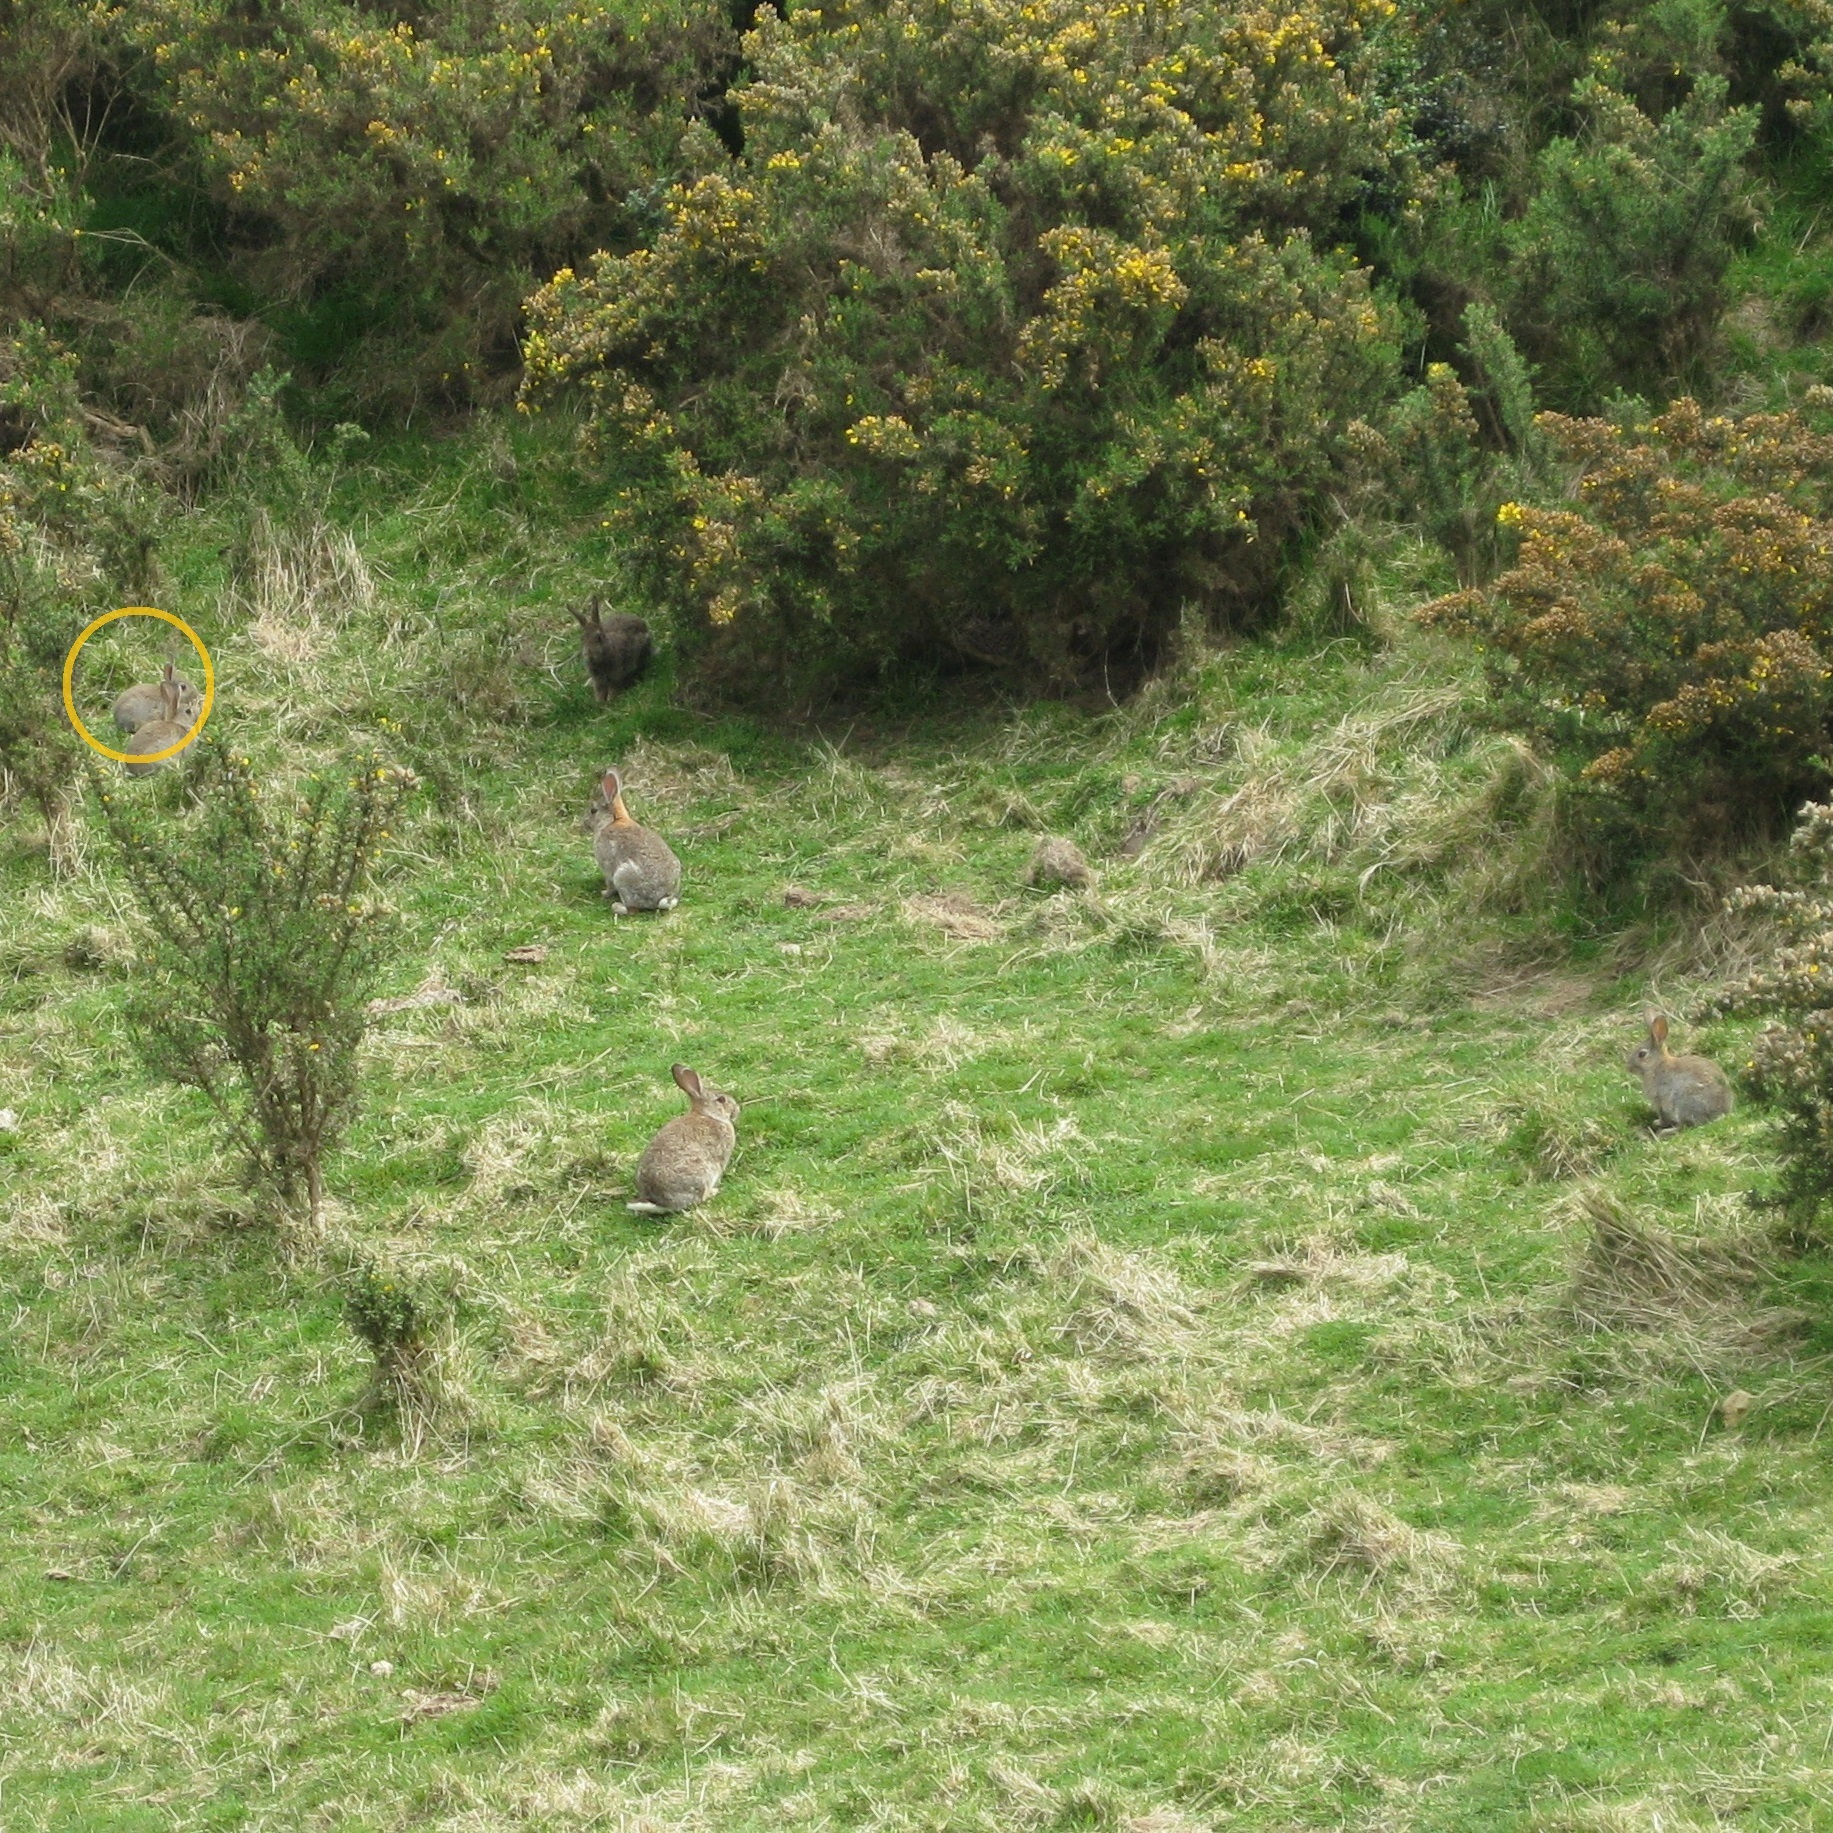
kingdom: Animalia
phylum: Chordata
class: Mammalia
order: Lagomorpha
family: Leporidae
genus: Oryctolagus
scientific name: Oryctolagus cuniculus
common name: European rabbit
